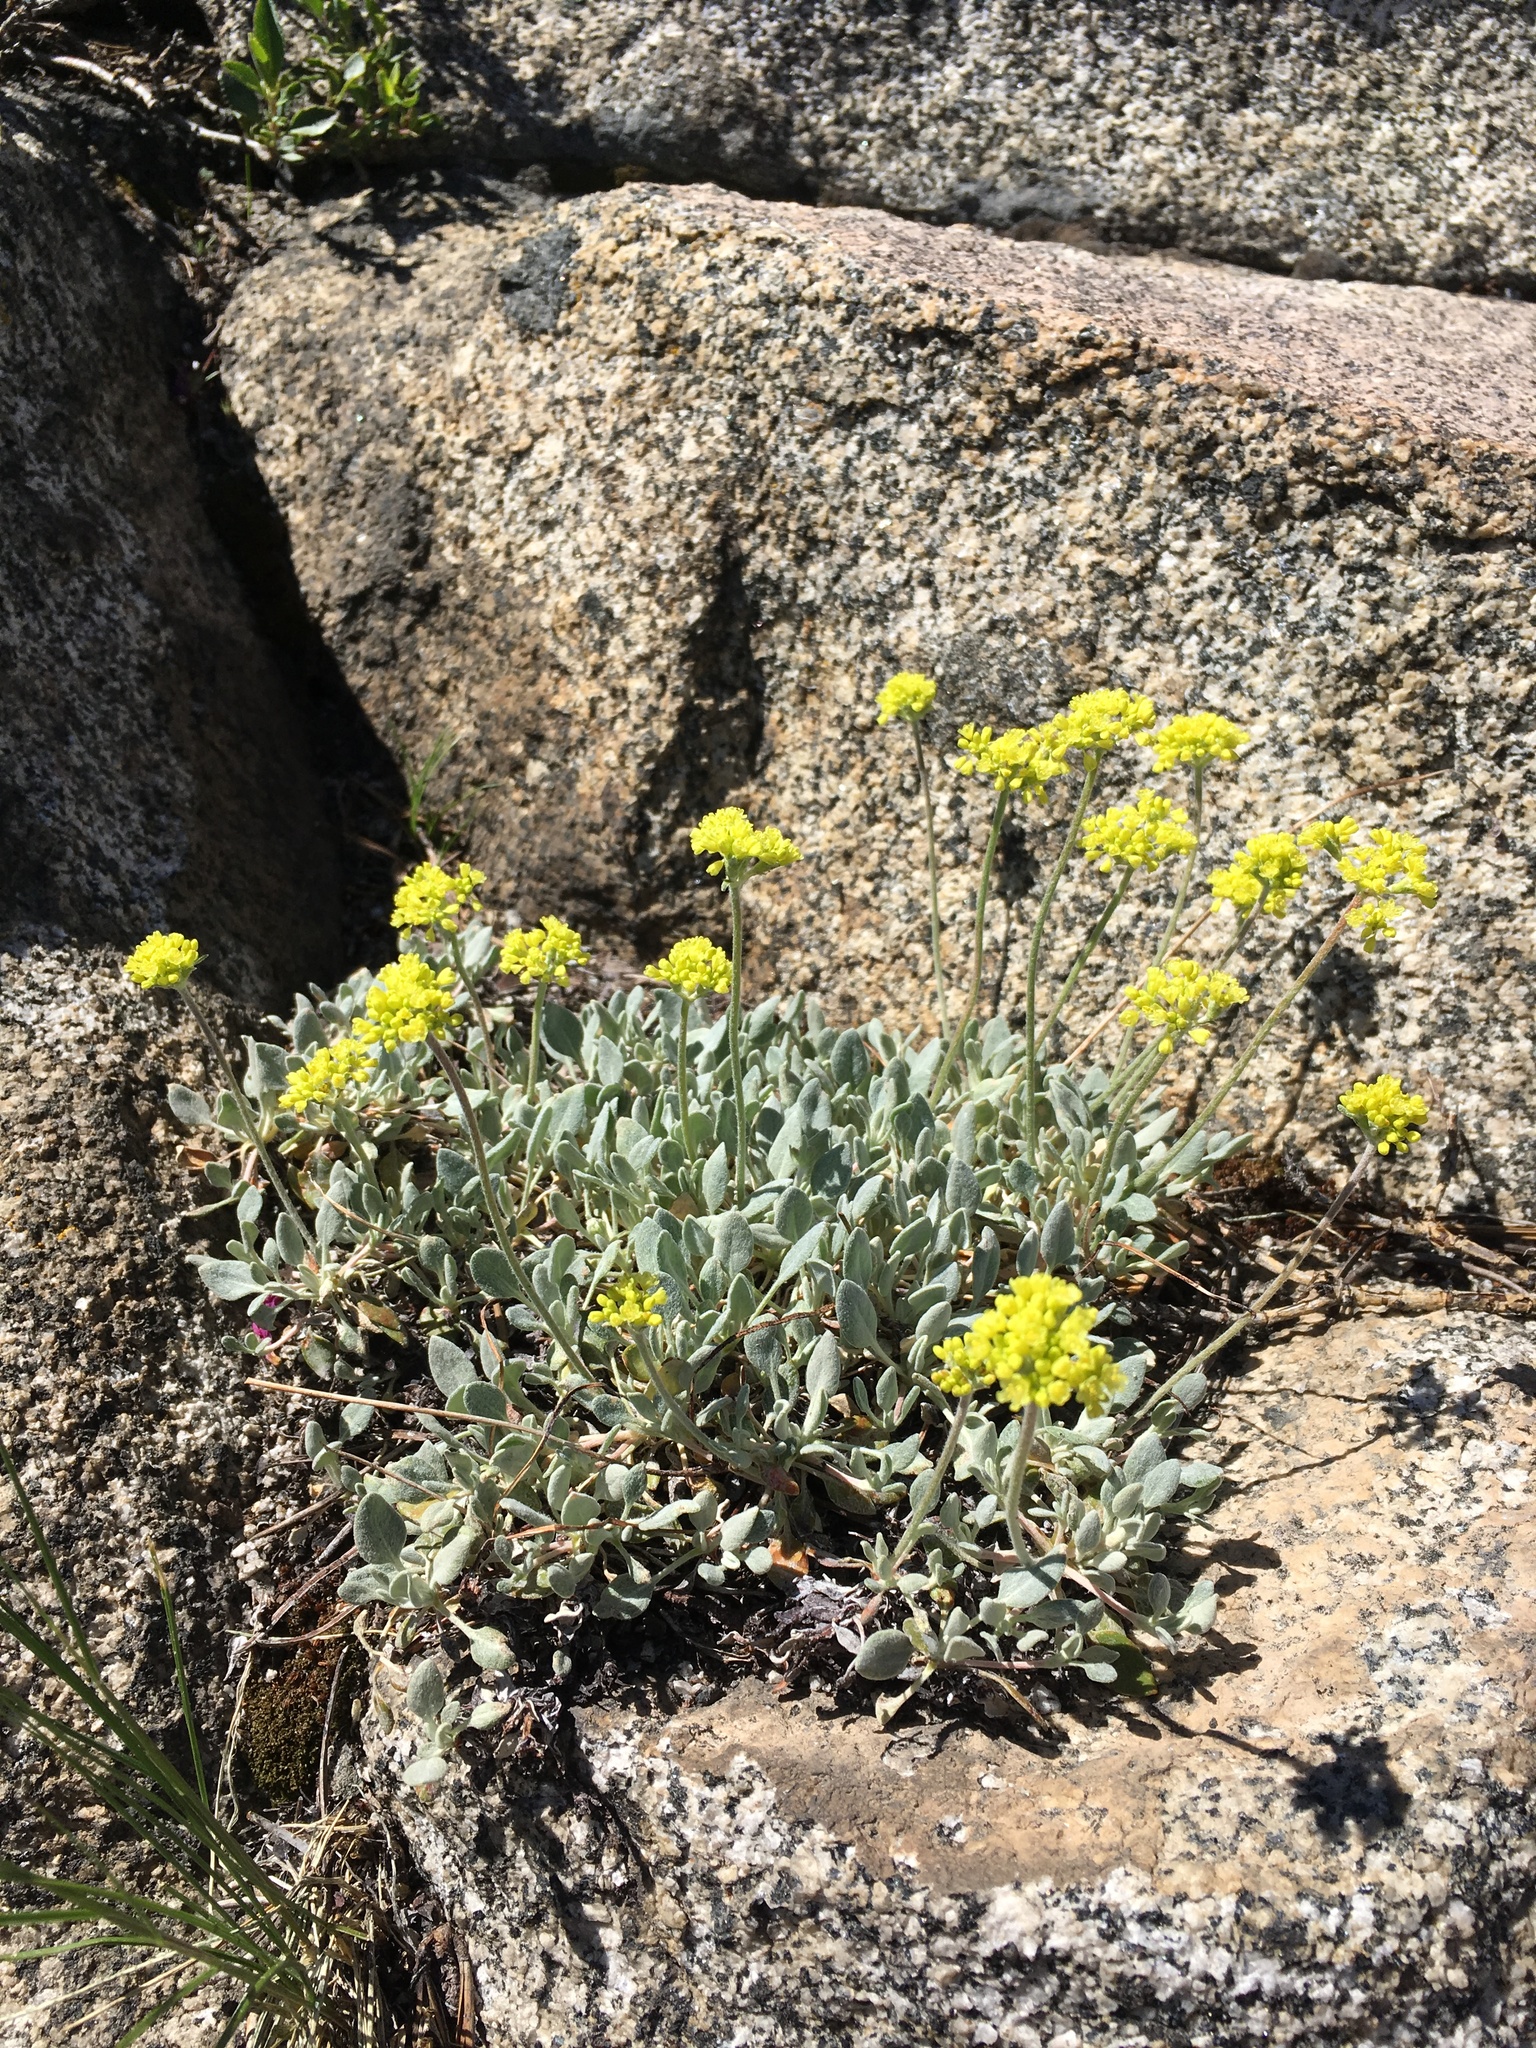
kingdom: Plantae
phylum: Tracheophyta
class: Magnoliopsida
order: Caryophyllales
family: Polygonaceae
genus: Eriogonum
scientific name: Eriogonum incanum
